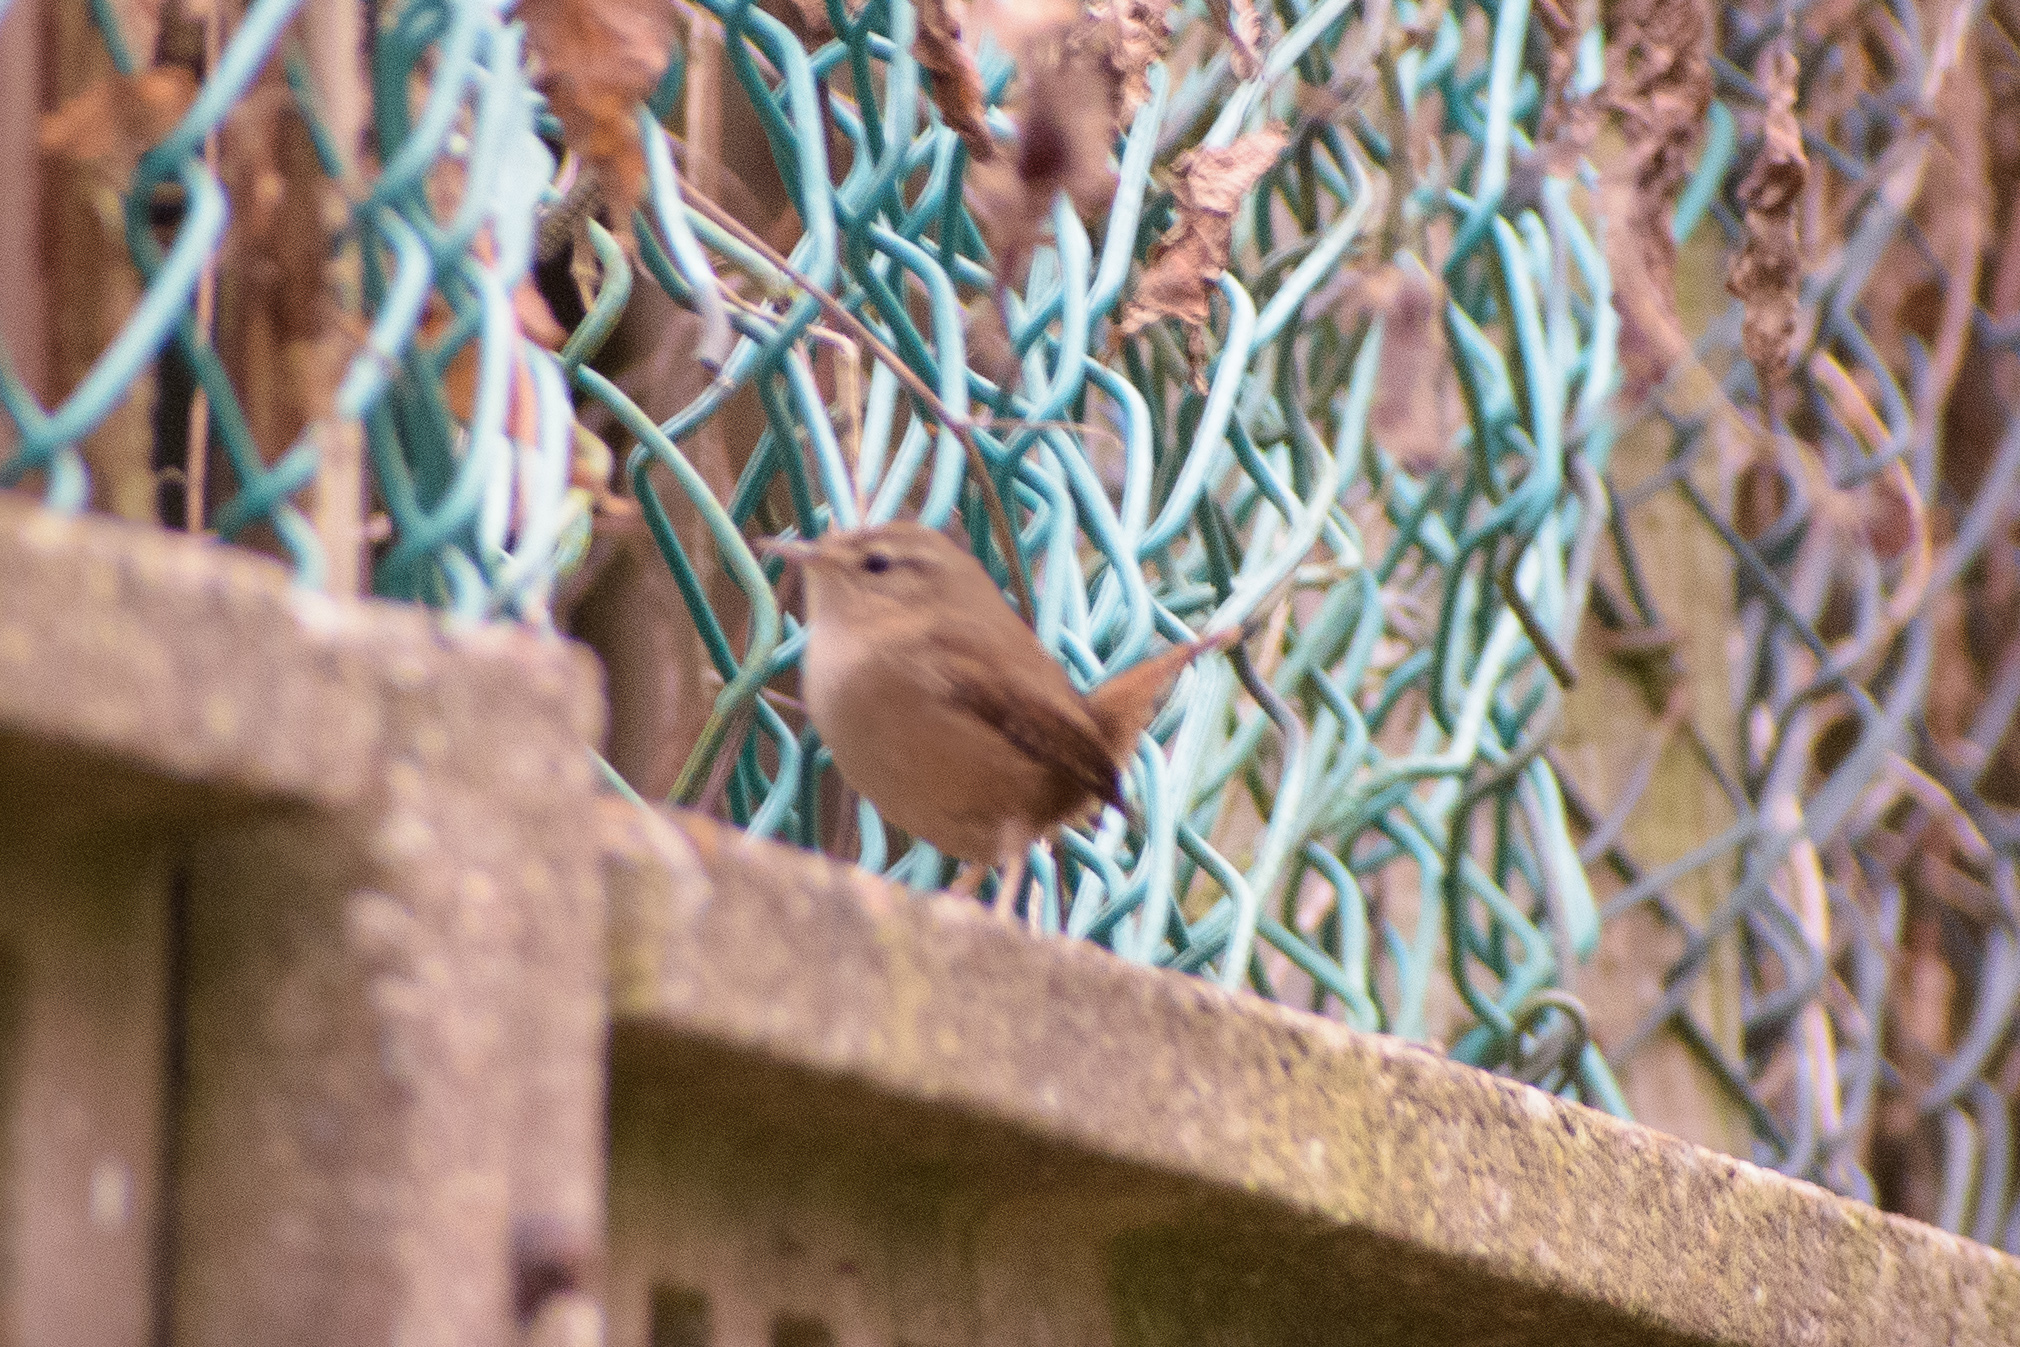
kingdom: Animalia
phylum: Chordata
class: Aves
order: Passeriformes
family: Troglodytidae
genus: Troglodytes
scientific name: Troglodytes troglodytes
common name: Eurasian wren
